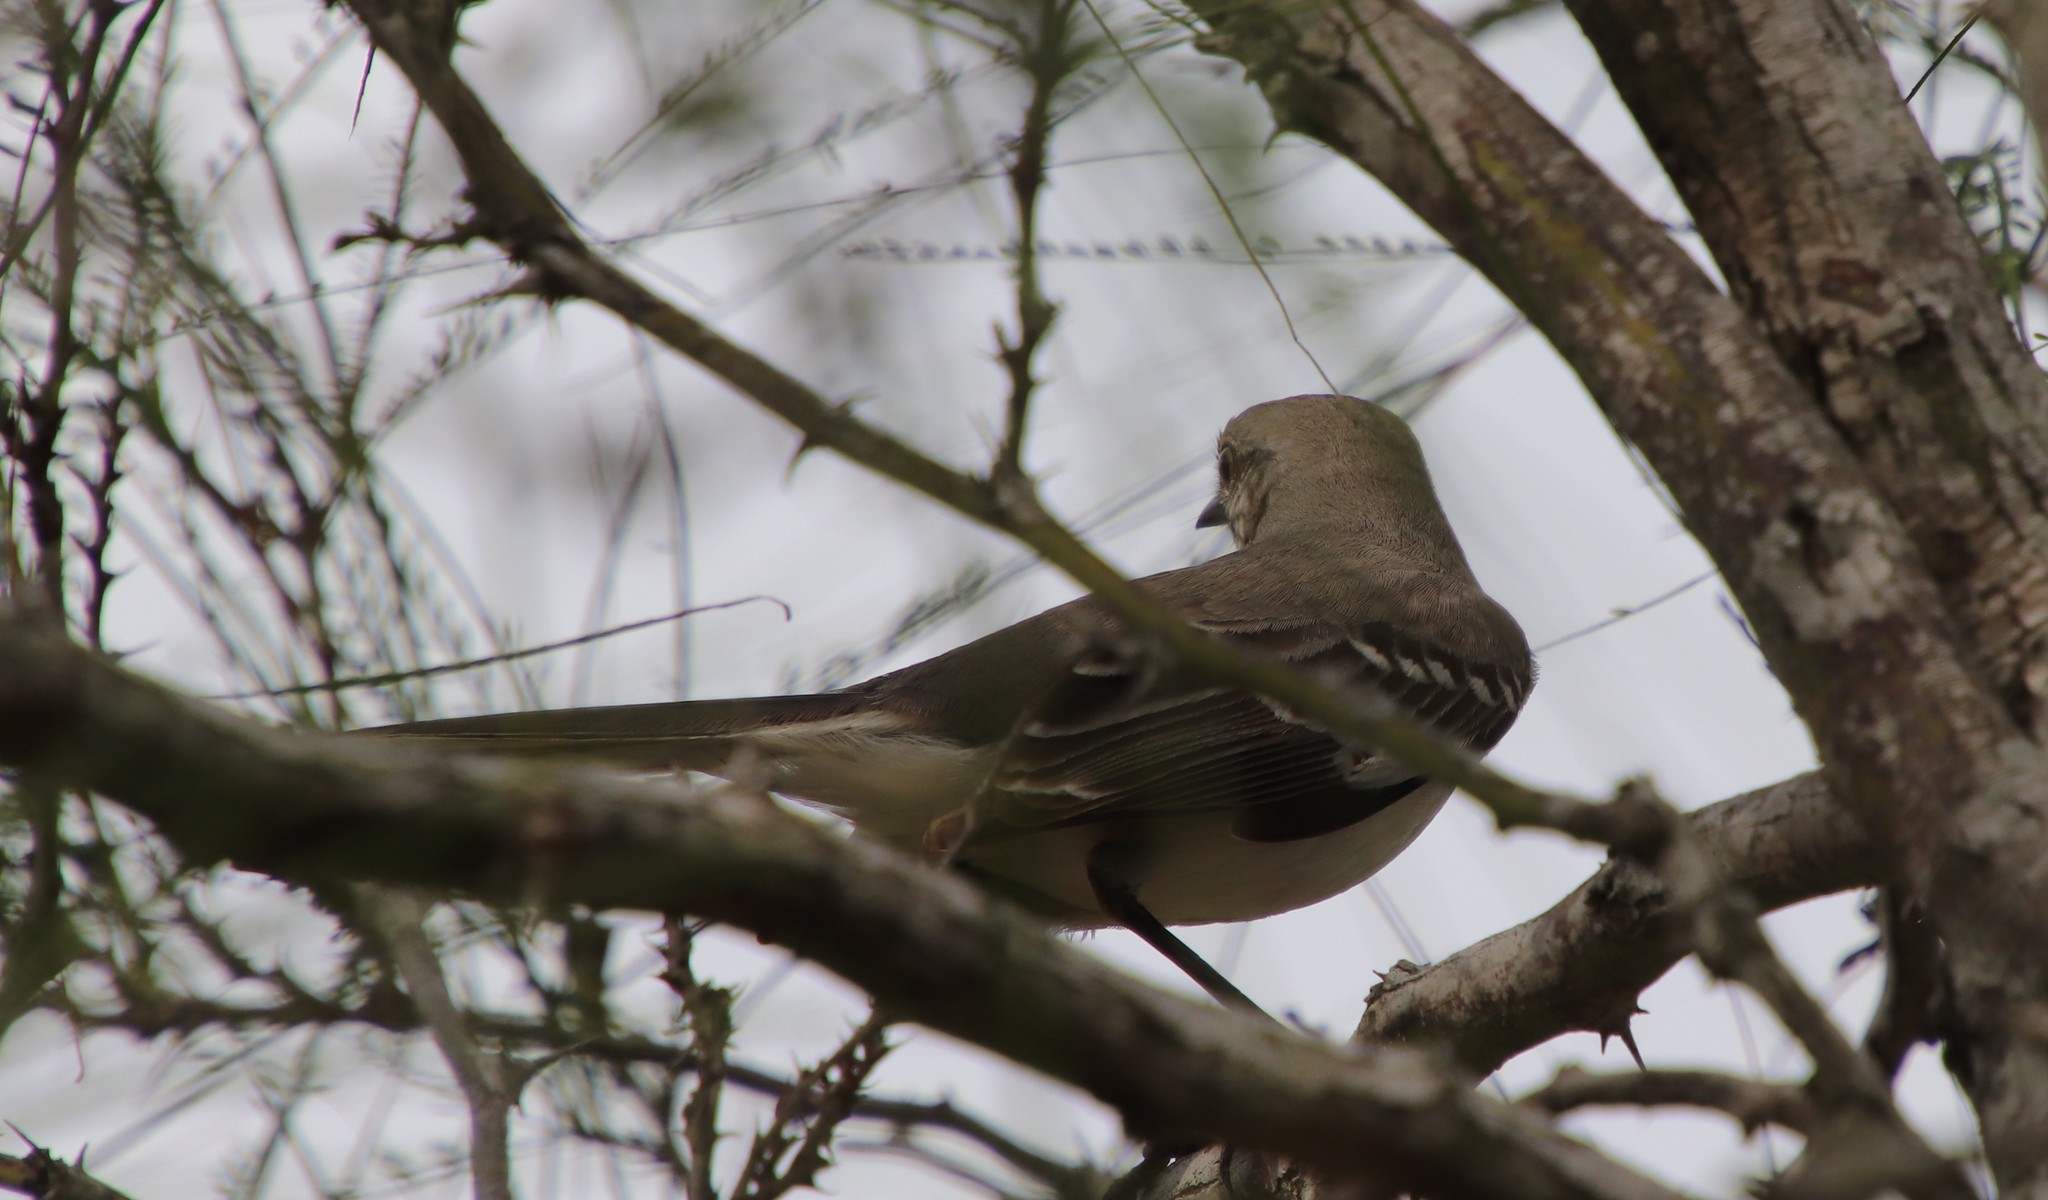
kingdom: Animalia
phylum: Chordata
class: Aves
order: Passeriformes
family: Mimidae
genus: Mimus
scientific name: Mimus polyglottos
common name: Northern mockingbird
